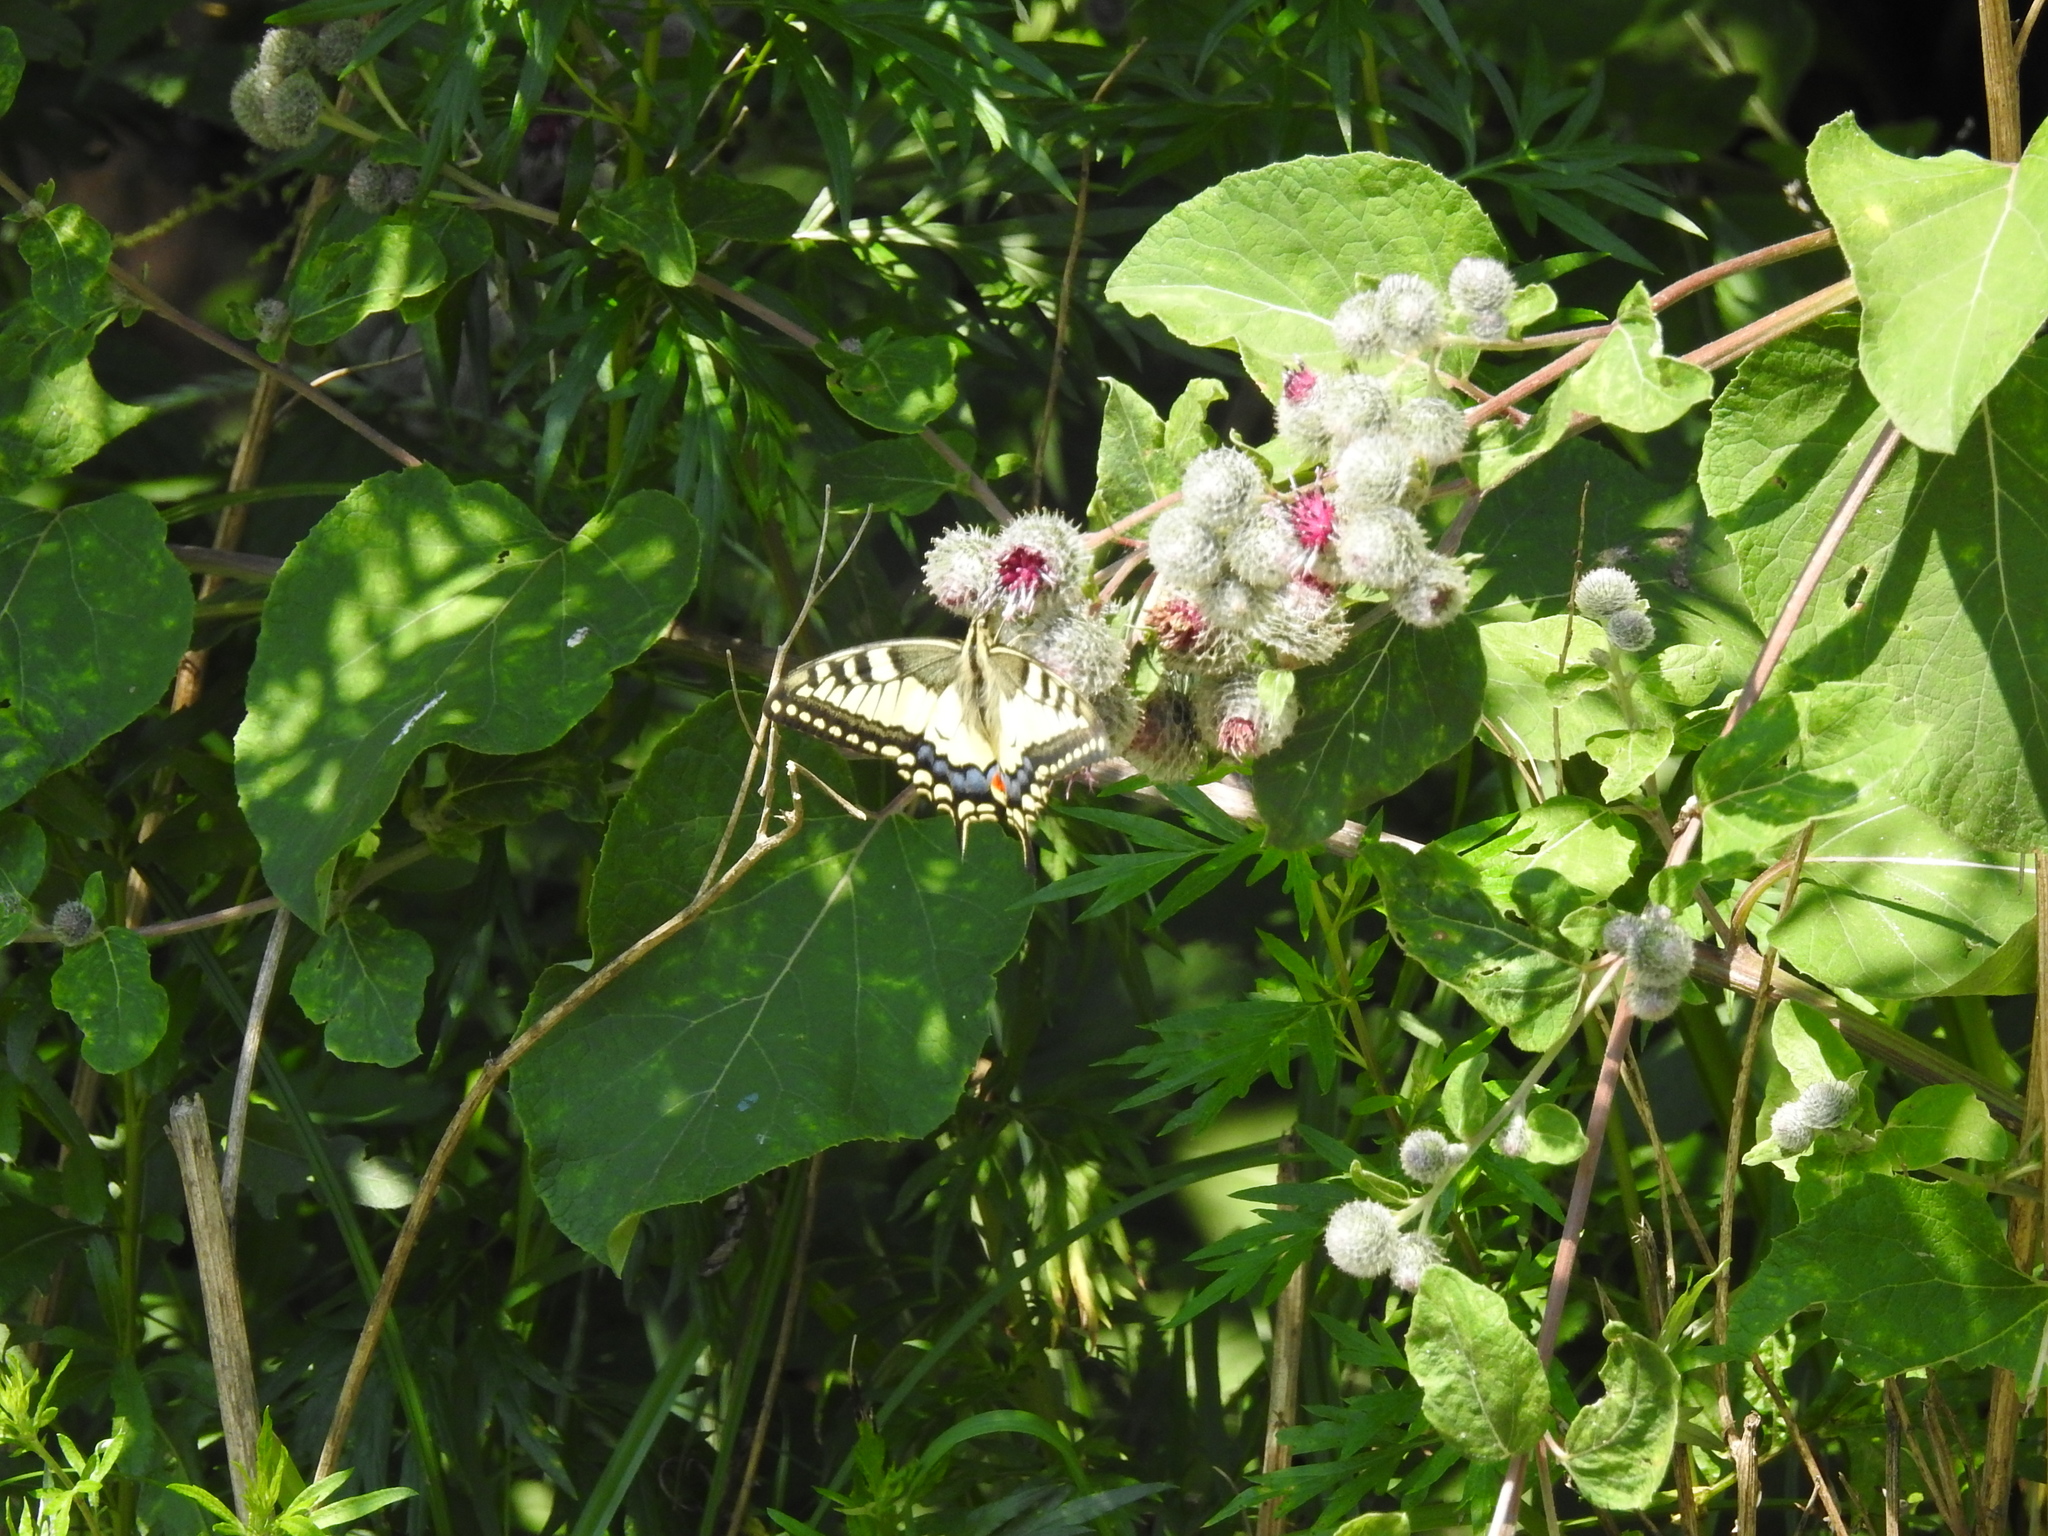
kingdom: Animalia
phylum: Arthropoda
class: Insecta
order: Lepidoptera
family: Papilionidae
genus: Papilio
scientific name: Papilio machaon
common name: Swallowtail
